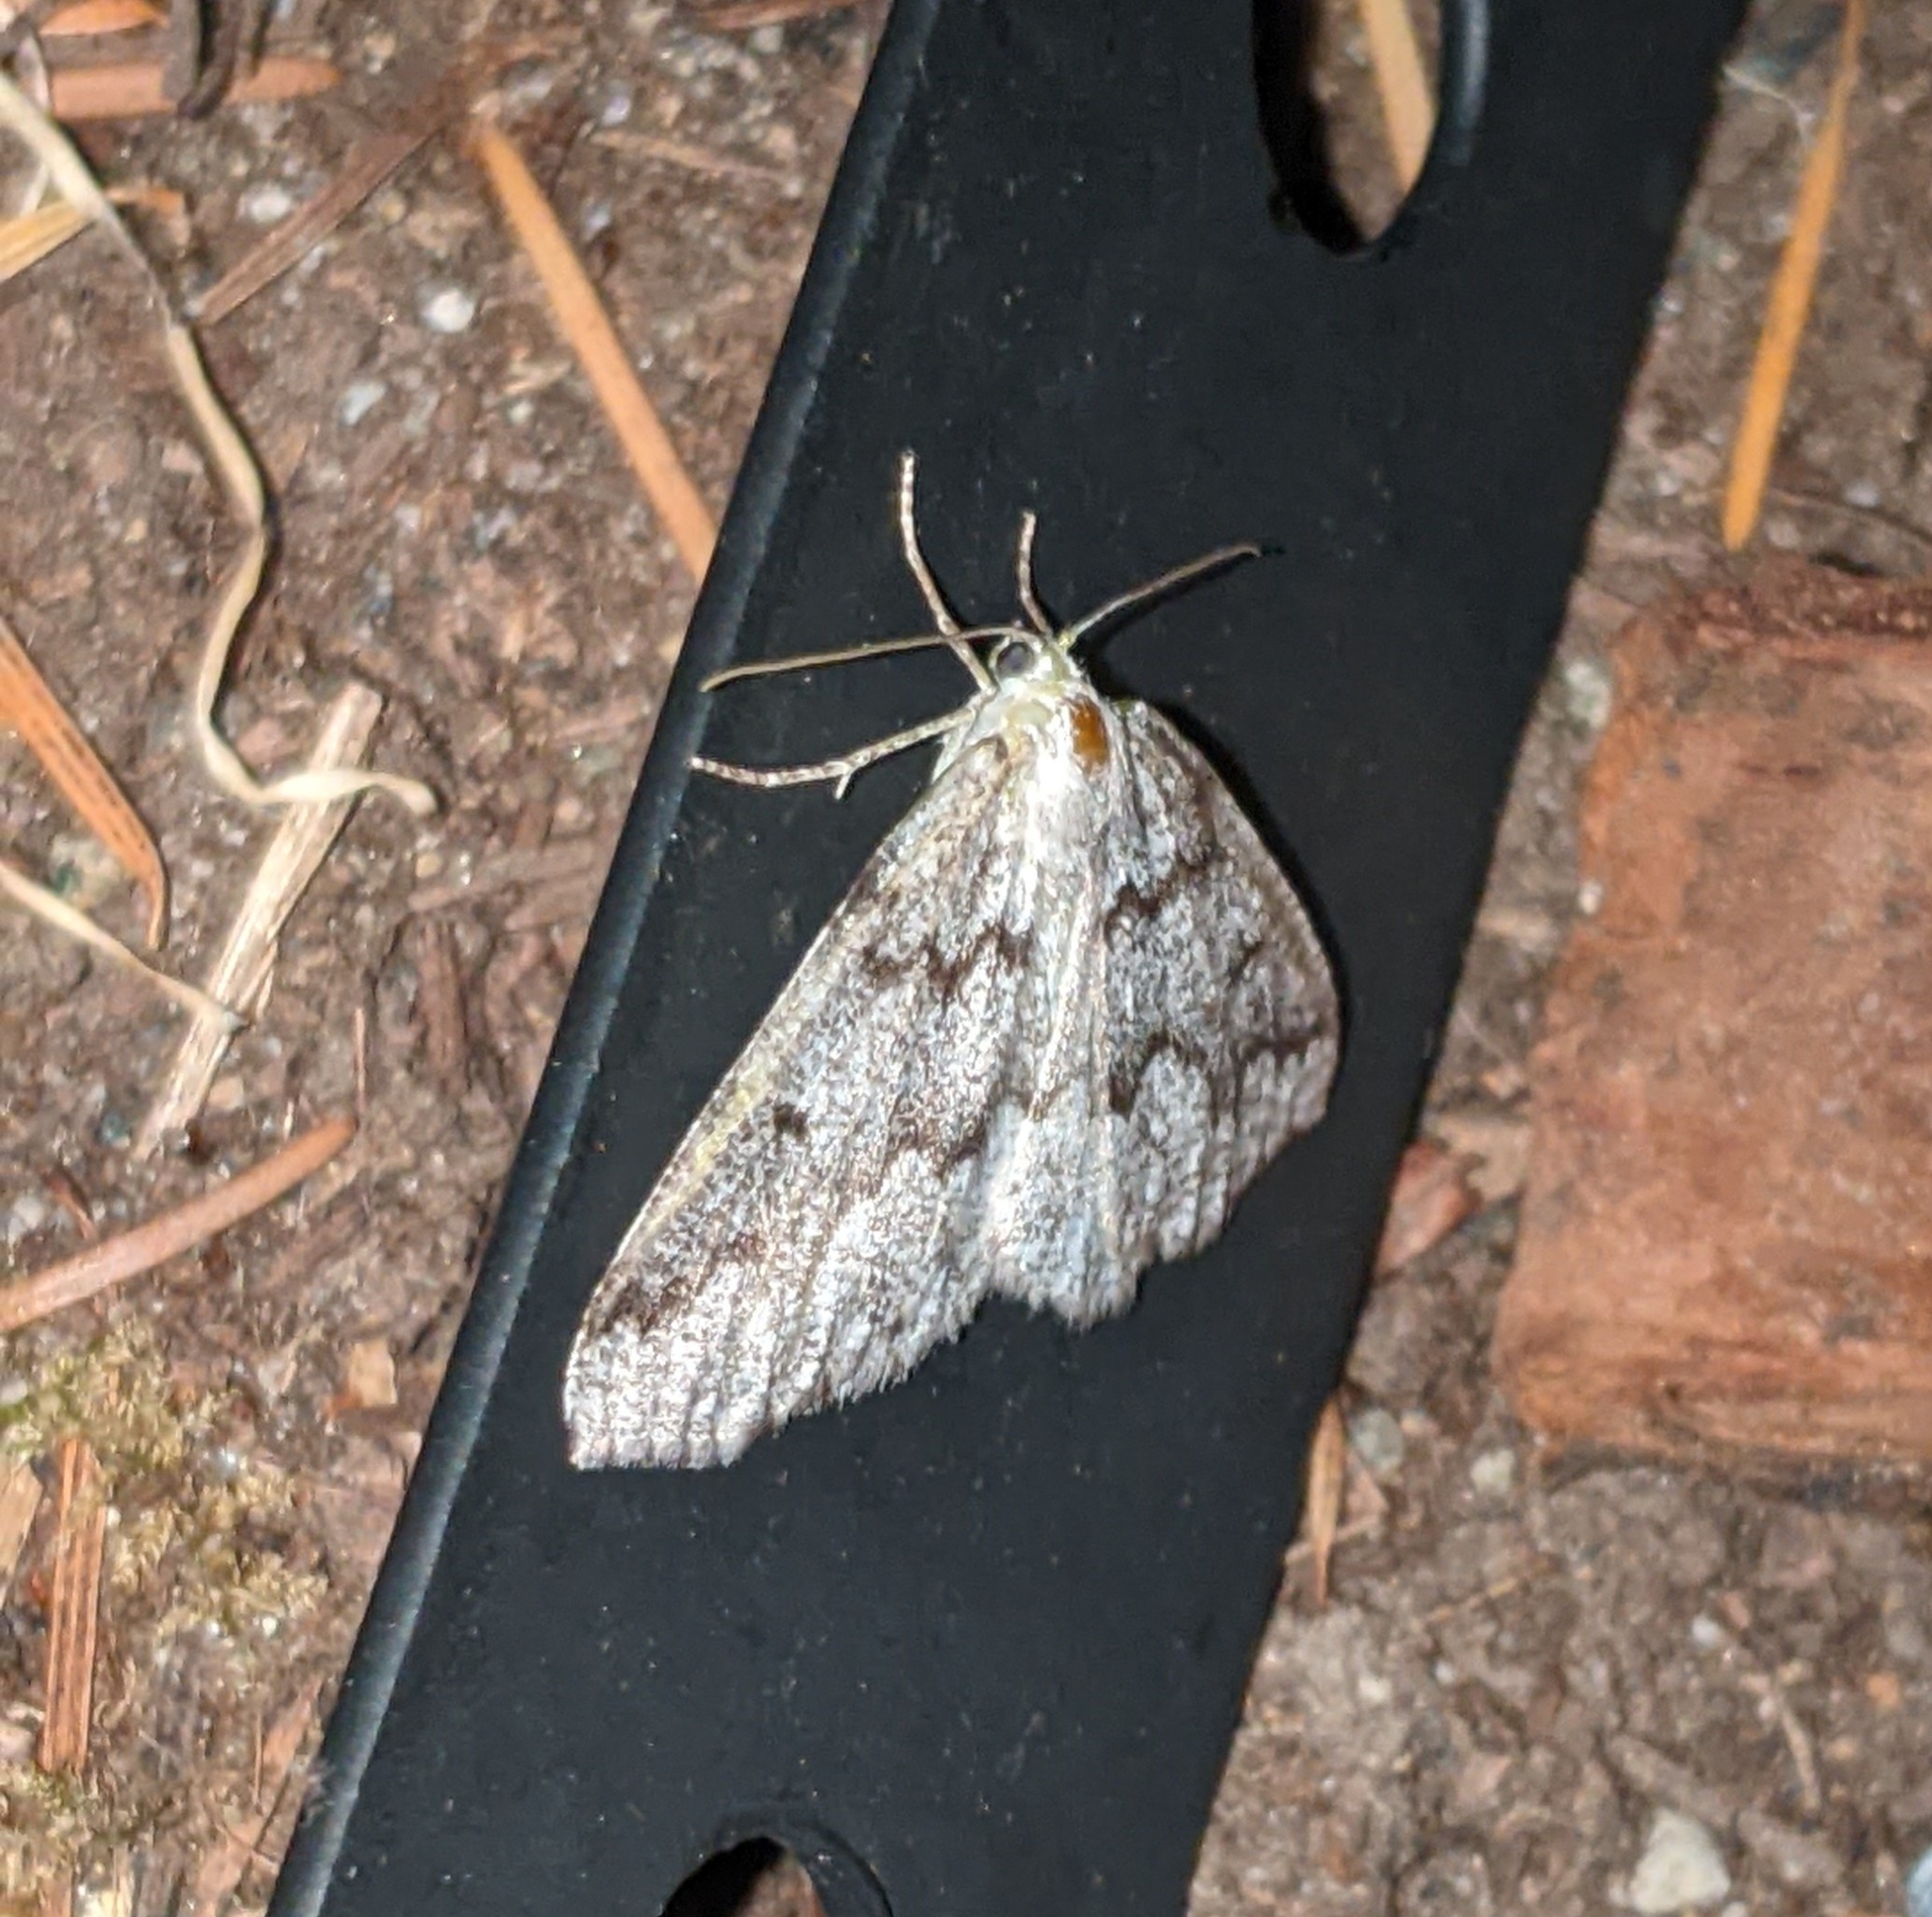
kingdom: Animalia
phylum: Arthropoda
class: Insecta
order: Lepidoptera
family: Geometridae
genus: Sabulodes
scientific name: Sabulodes
